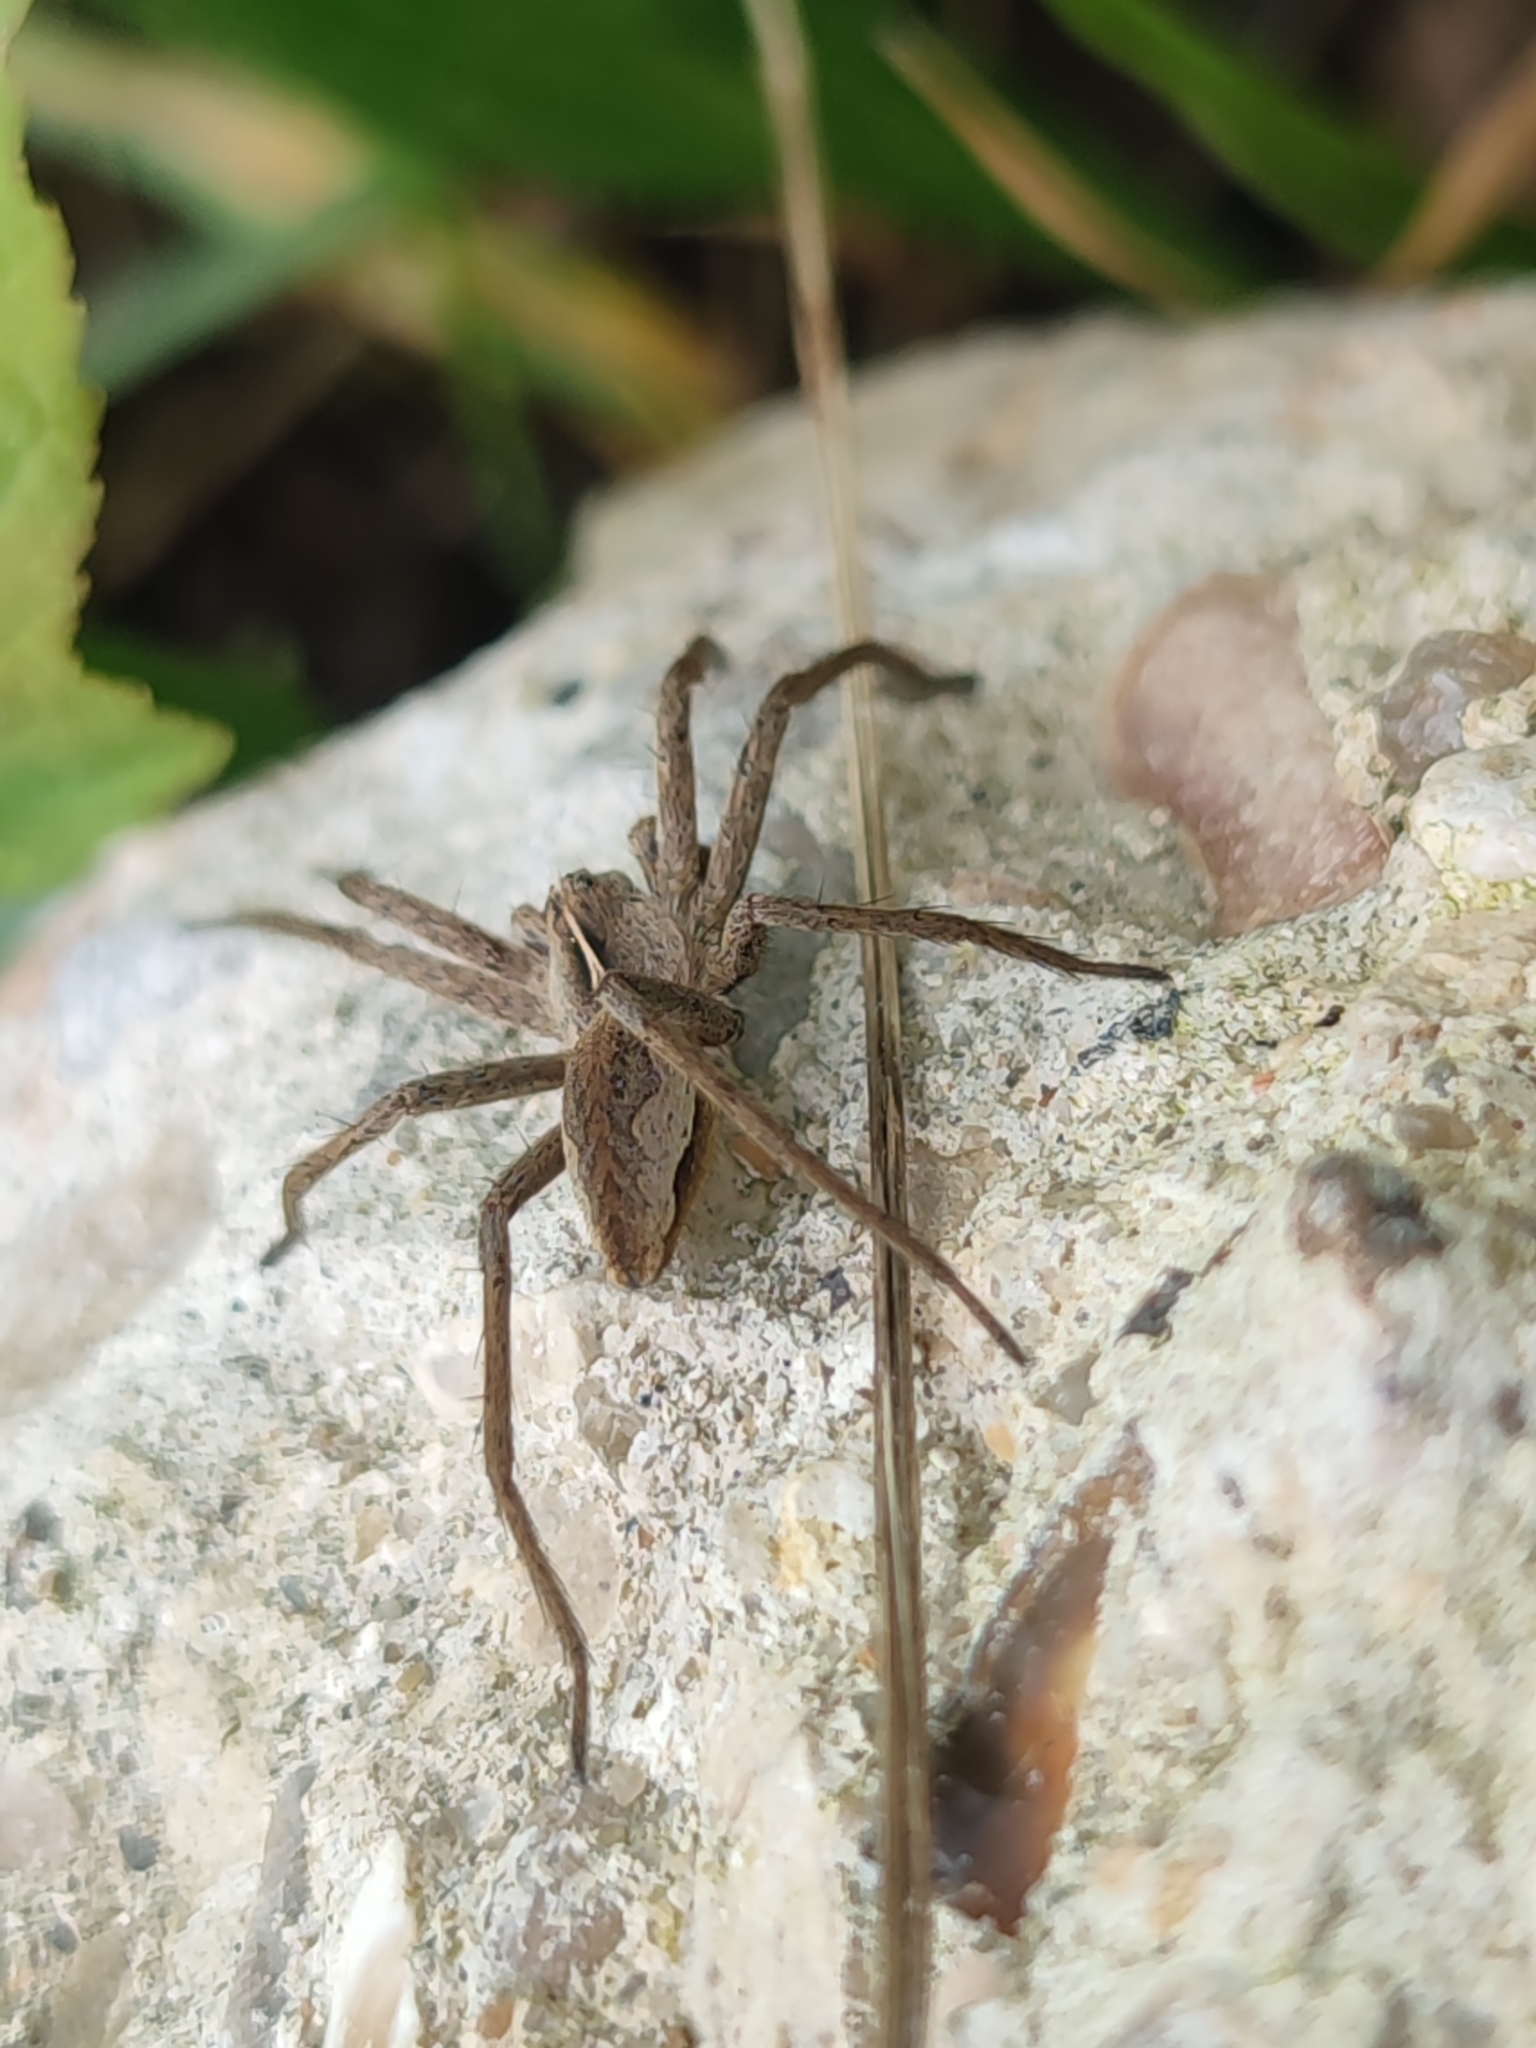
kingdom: Animalia
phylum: Arthropoda
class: Arachnida
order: Araneae
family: Pisauridae
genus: Pisaura
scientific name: Pisaura mirabilis
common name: Tent spider
